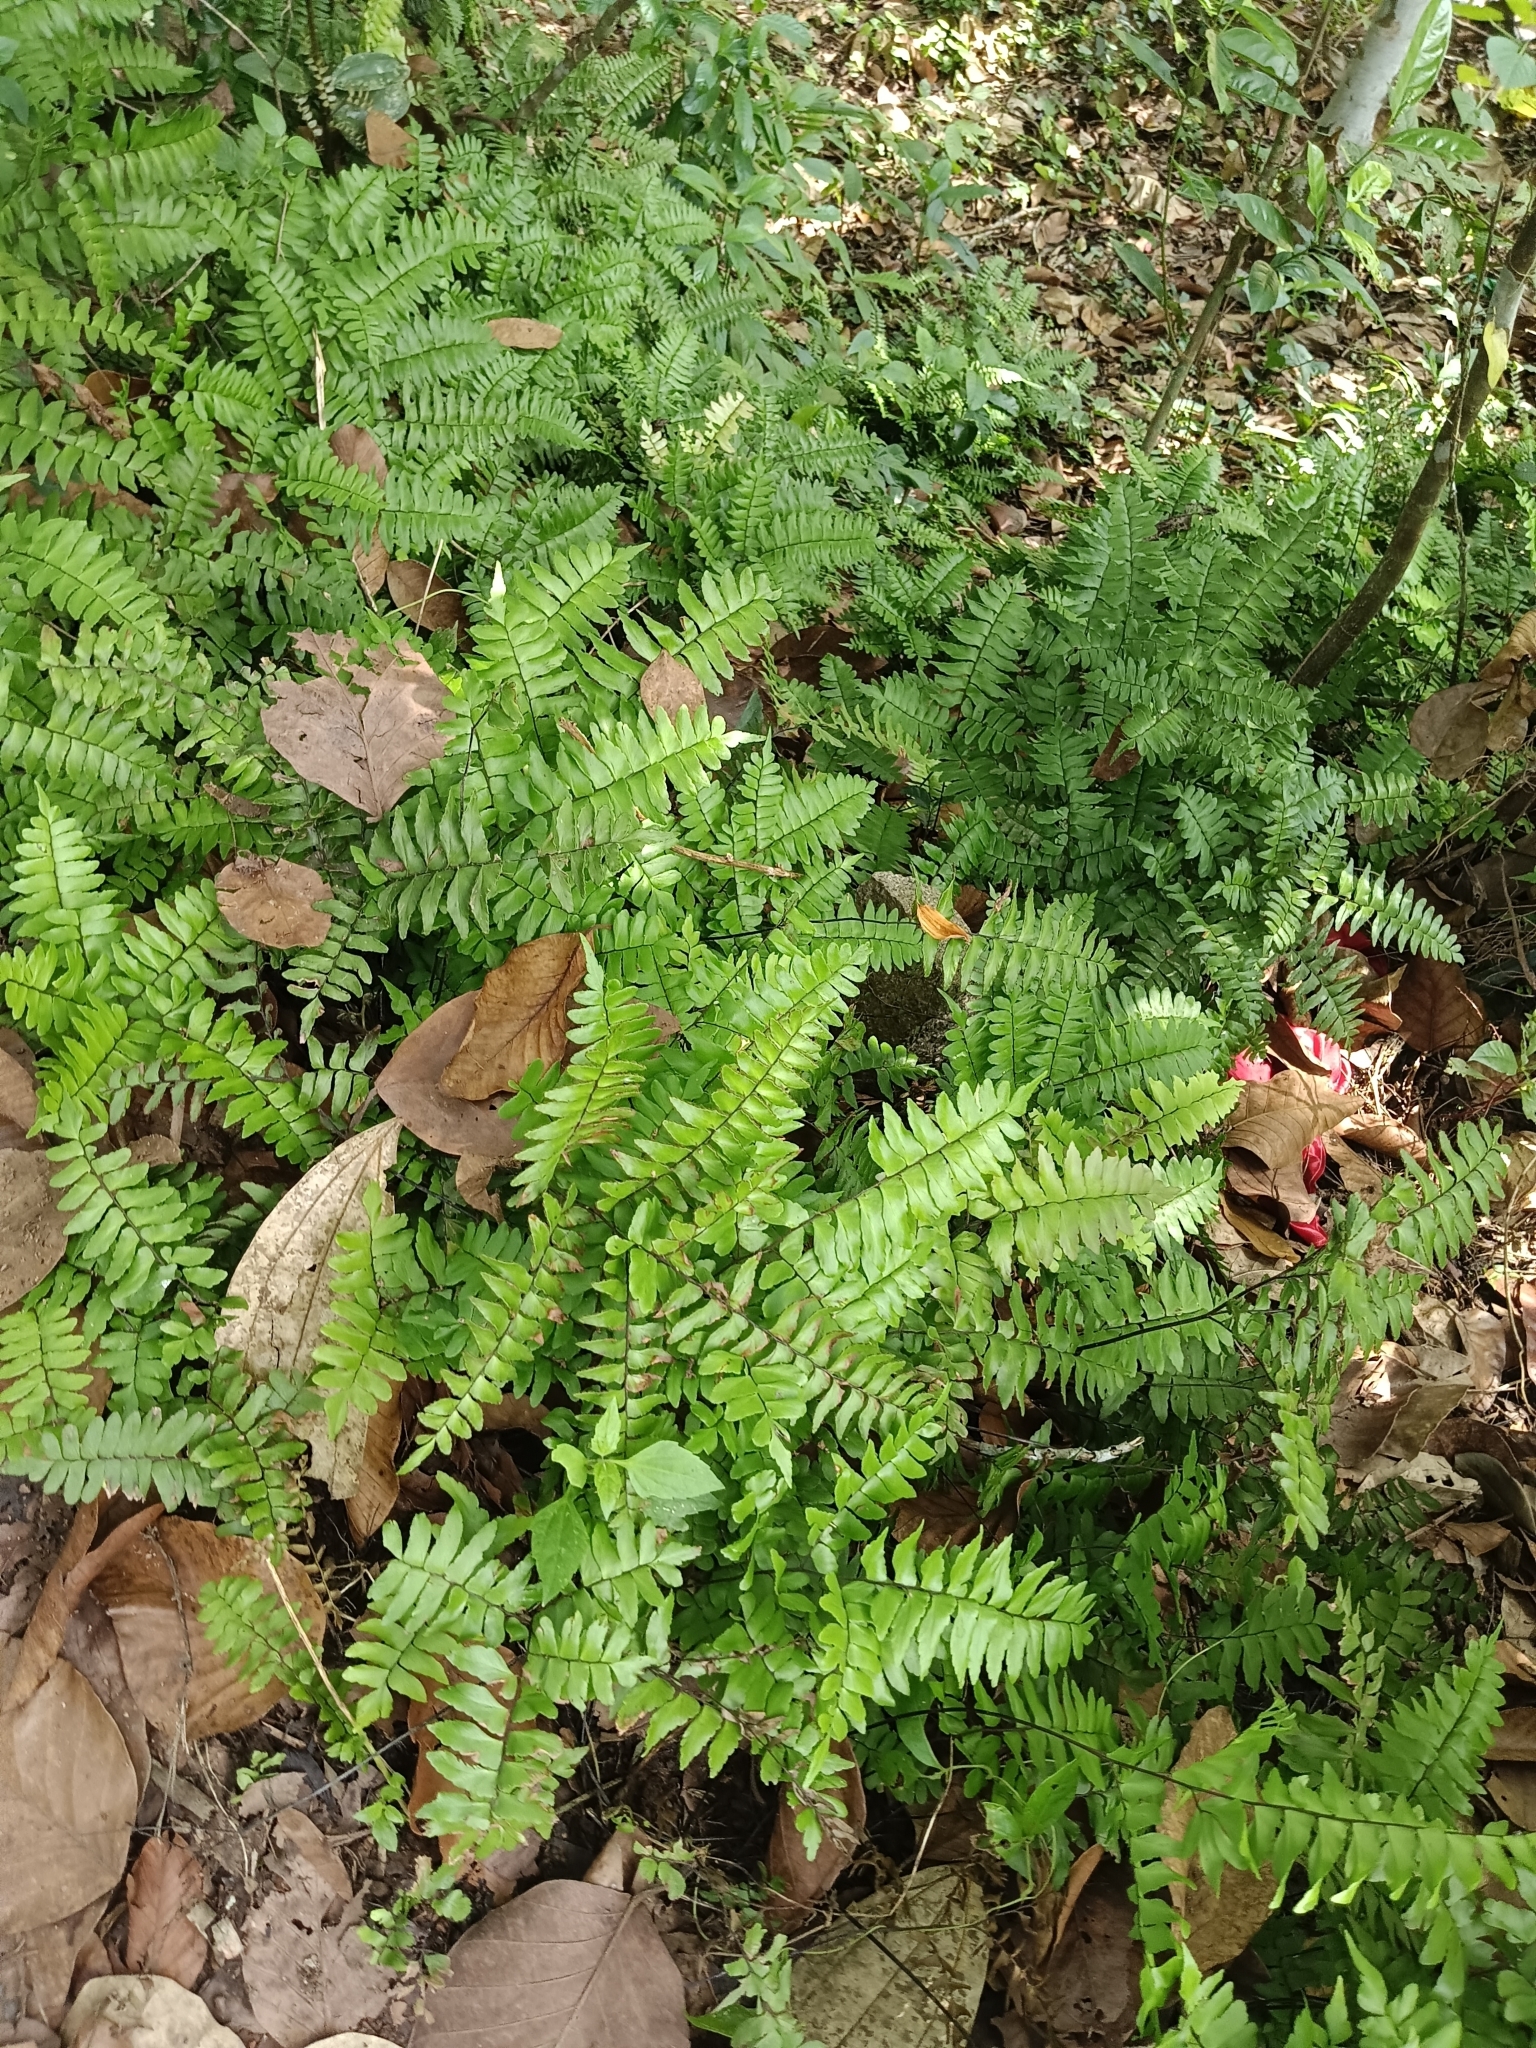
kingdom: Plantae
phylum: Tracheophyta
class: Polypodiopsida
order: Polypodiales
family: Pteridaceae
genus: Adiantum
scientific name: Adiantum latifolium
